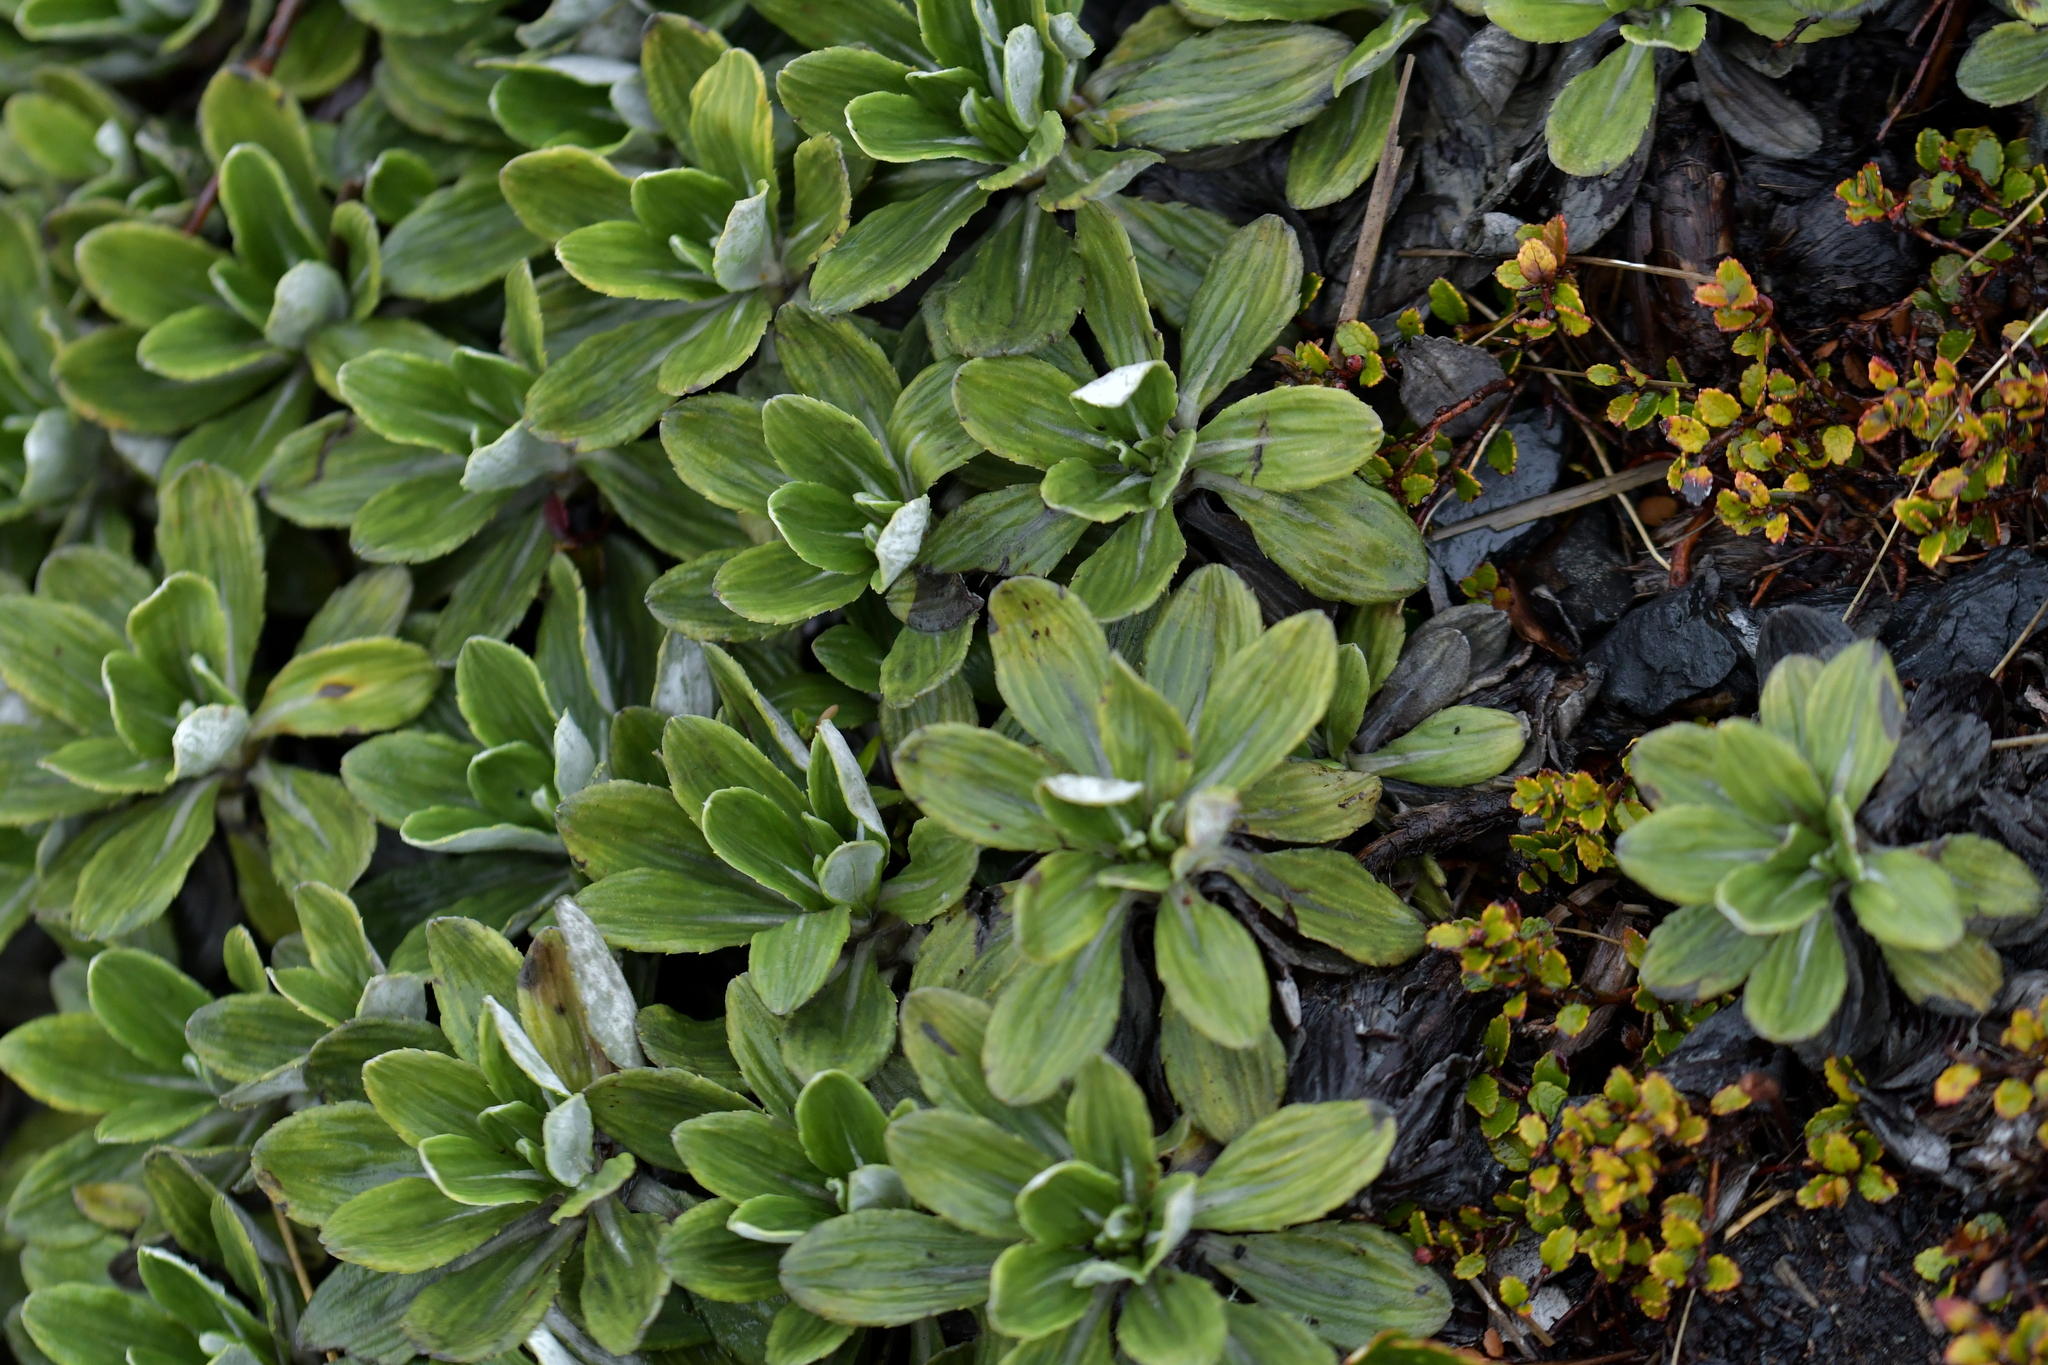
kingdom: Plantae
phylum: Tracheophyta
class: Magnoliopsida
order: Asterales
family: Asteraceae
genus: Celmisia
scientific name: Celmisia discolor
